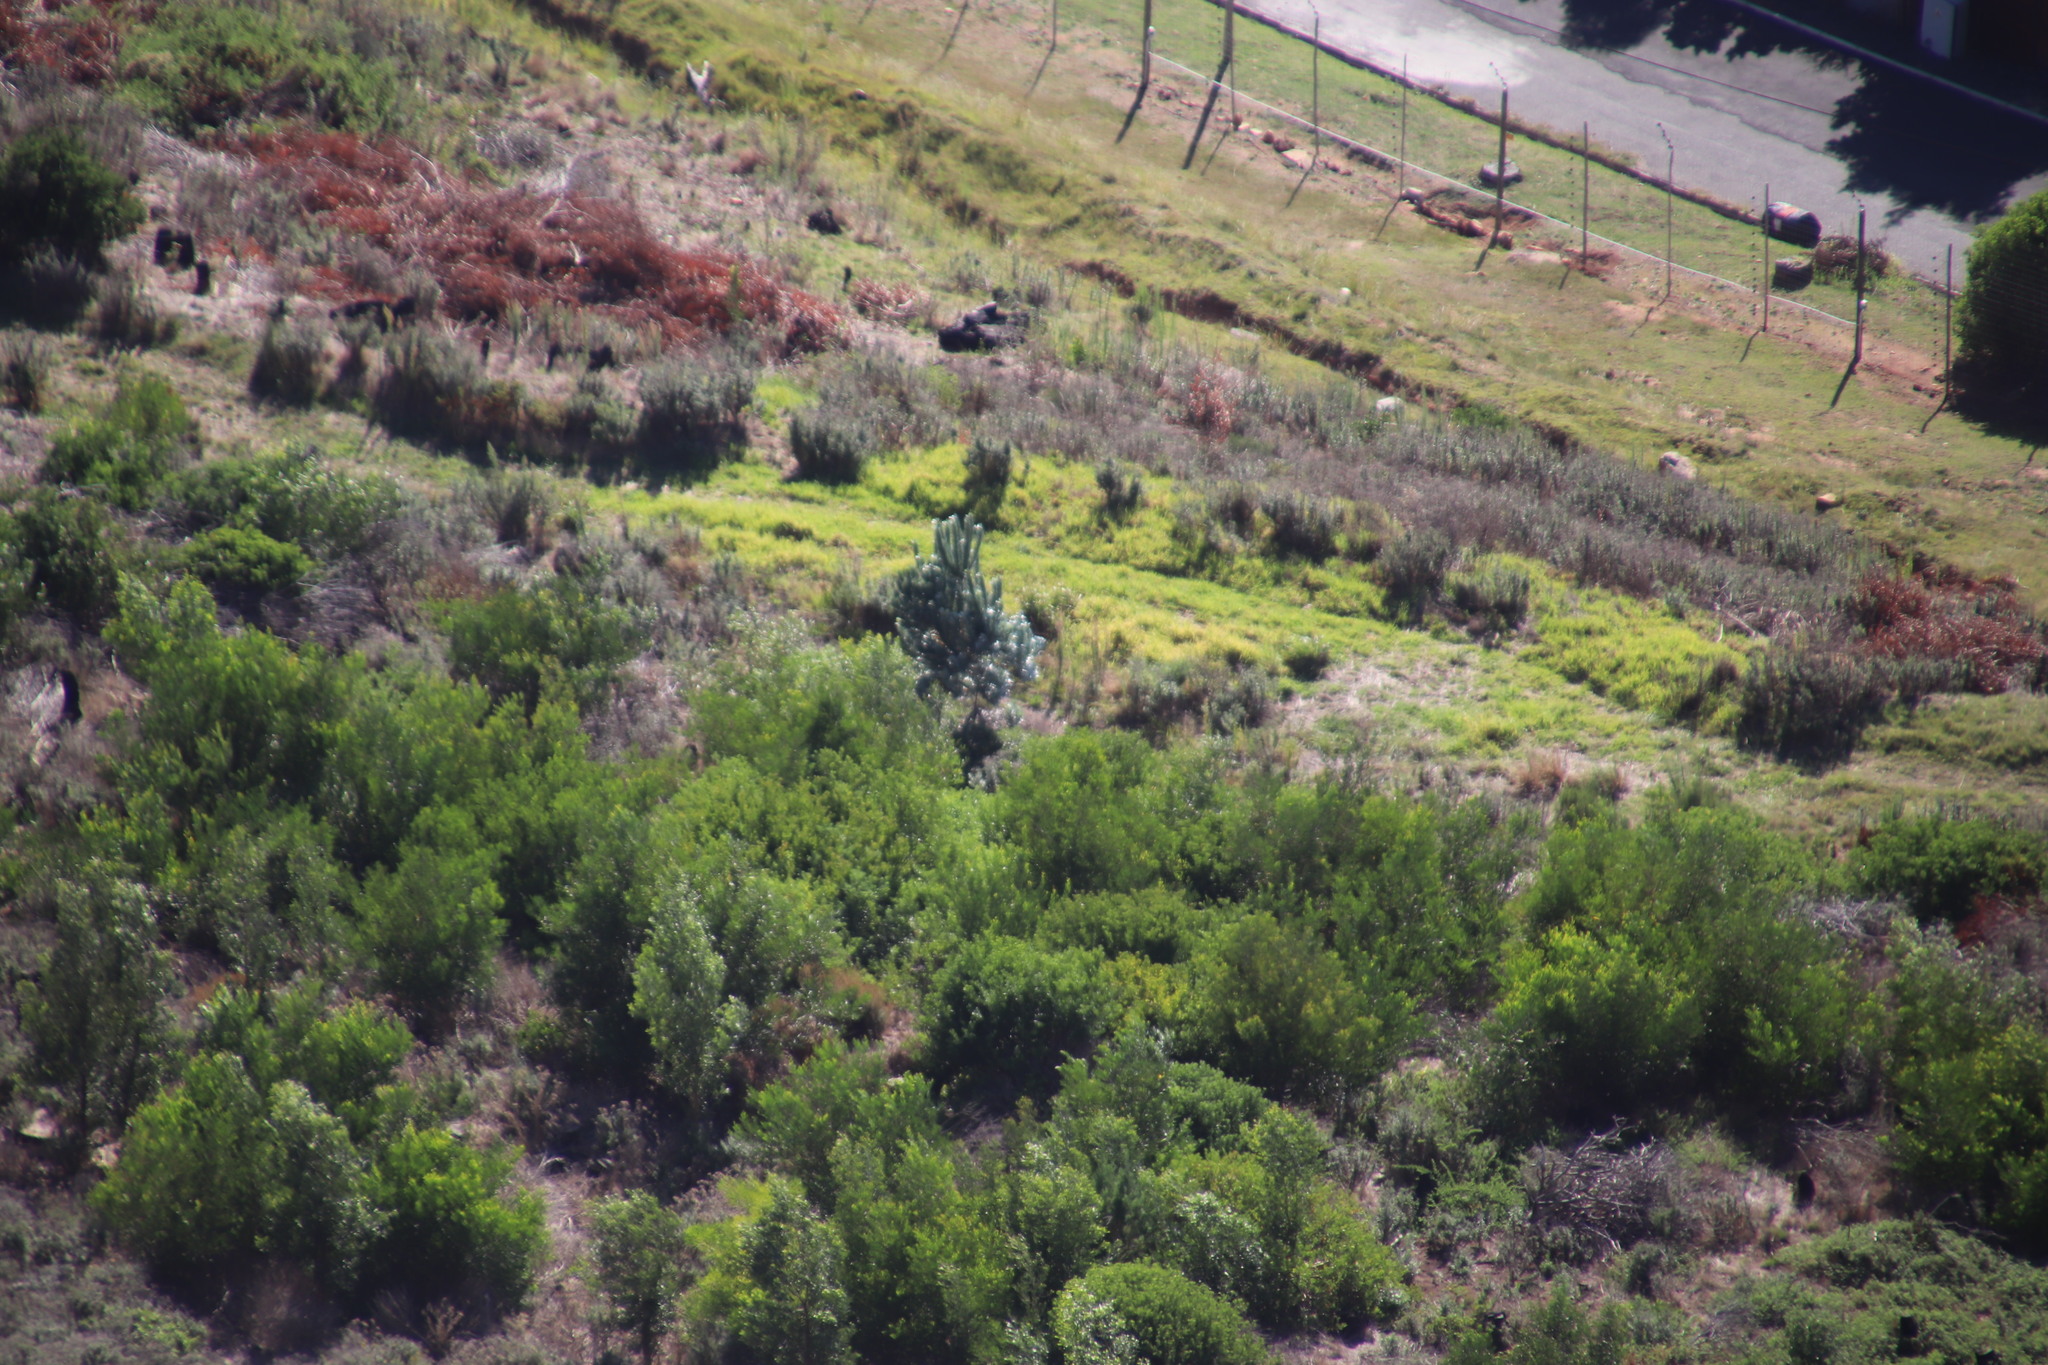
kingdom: Plantae
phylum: Tracheophyta
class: Magnoliopsida
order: Proteales
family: Proteaceae
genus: Leucadendron
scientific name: Leucadendron argenteum
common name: Cape silver tree
